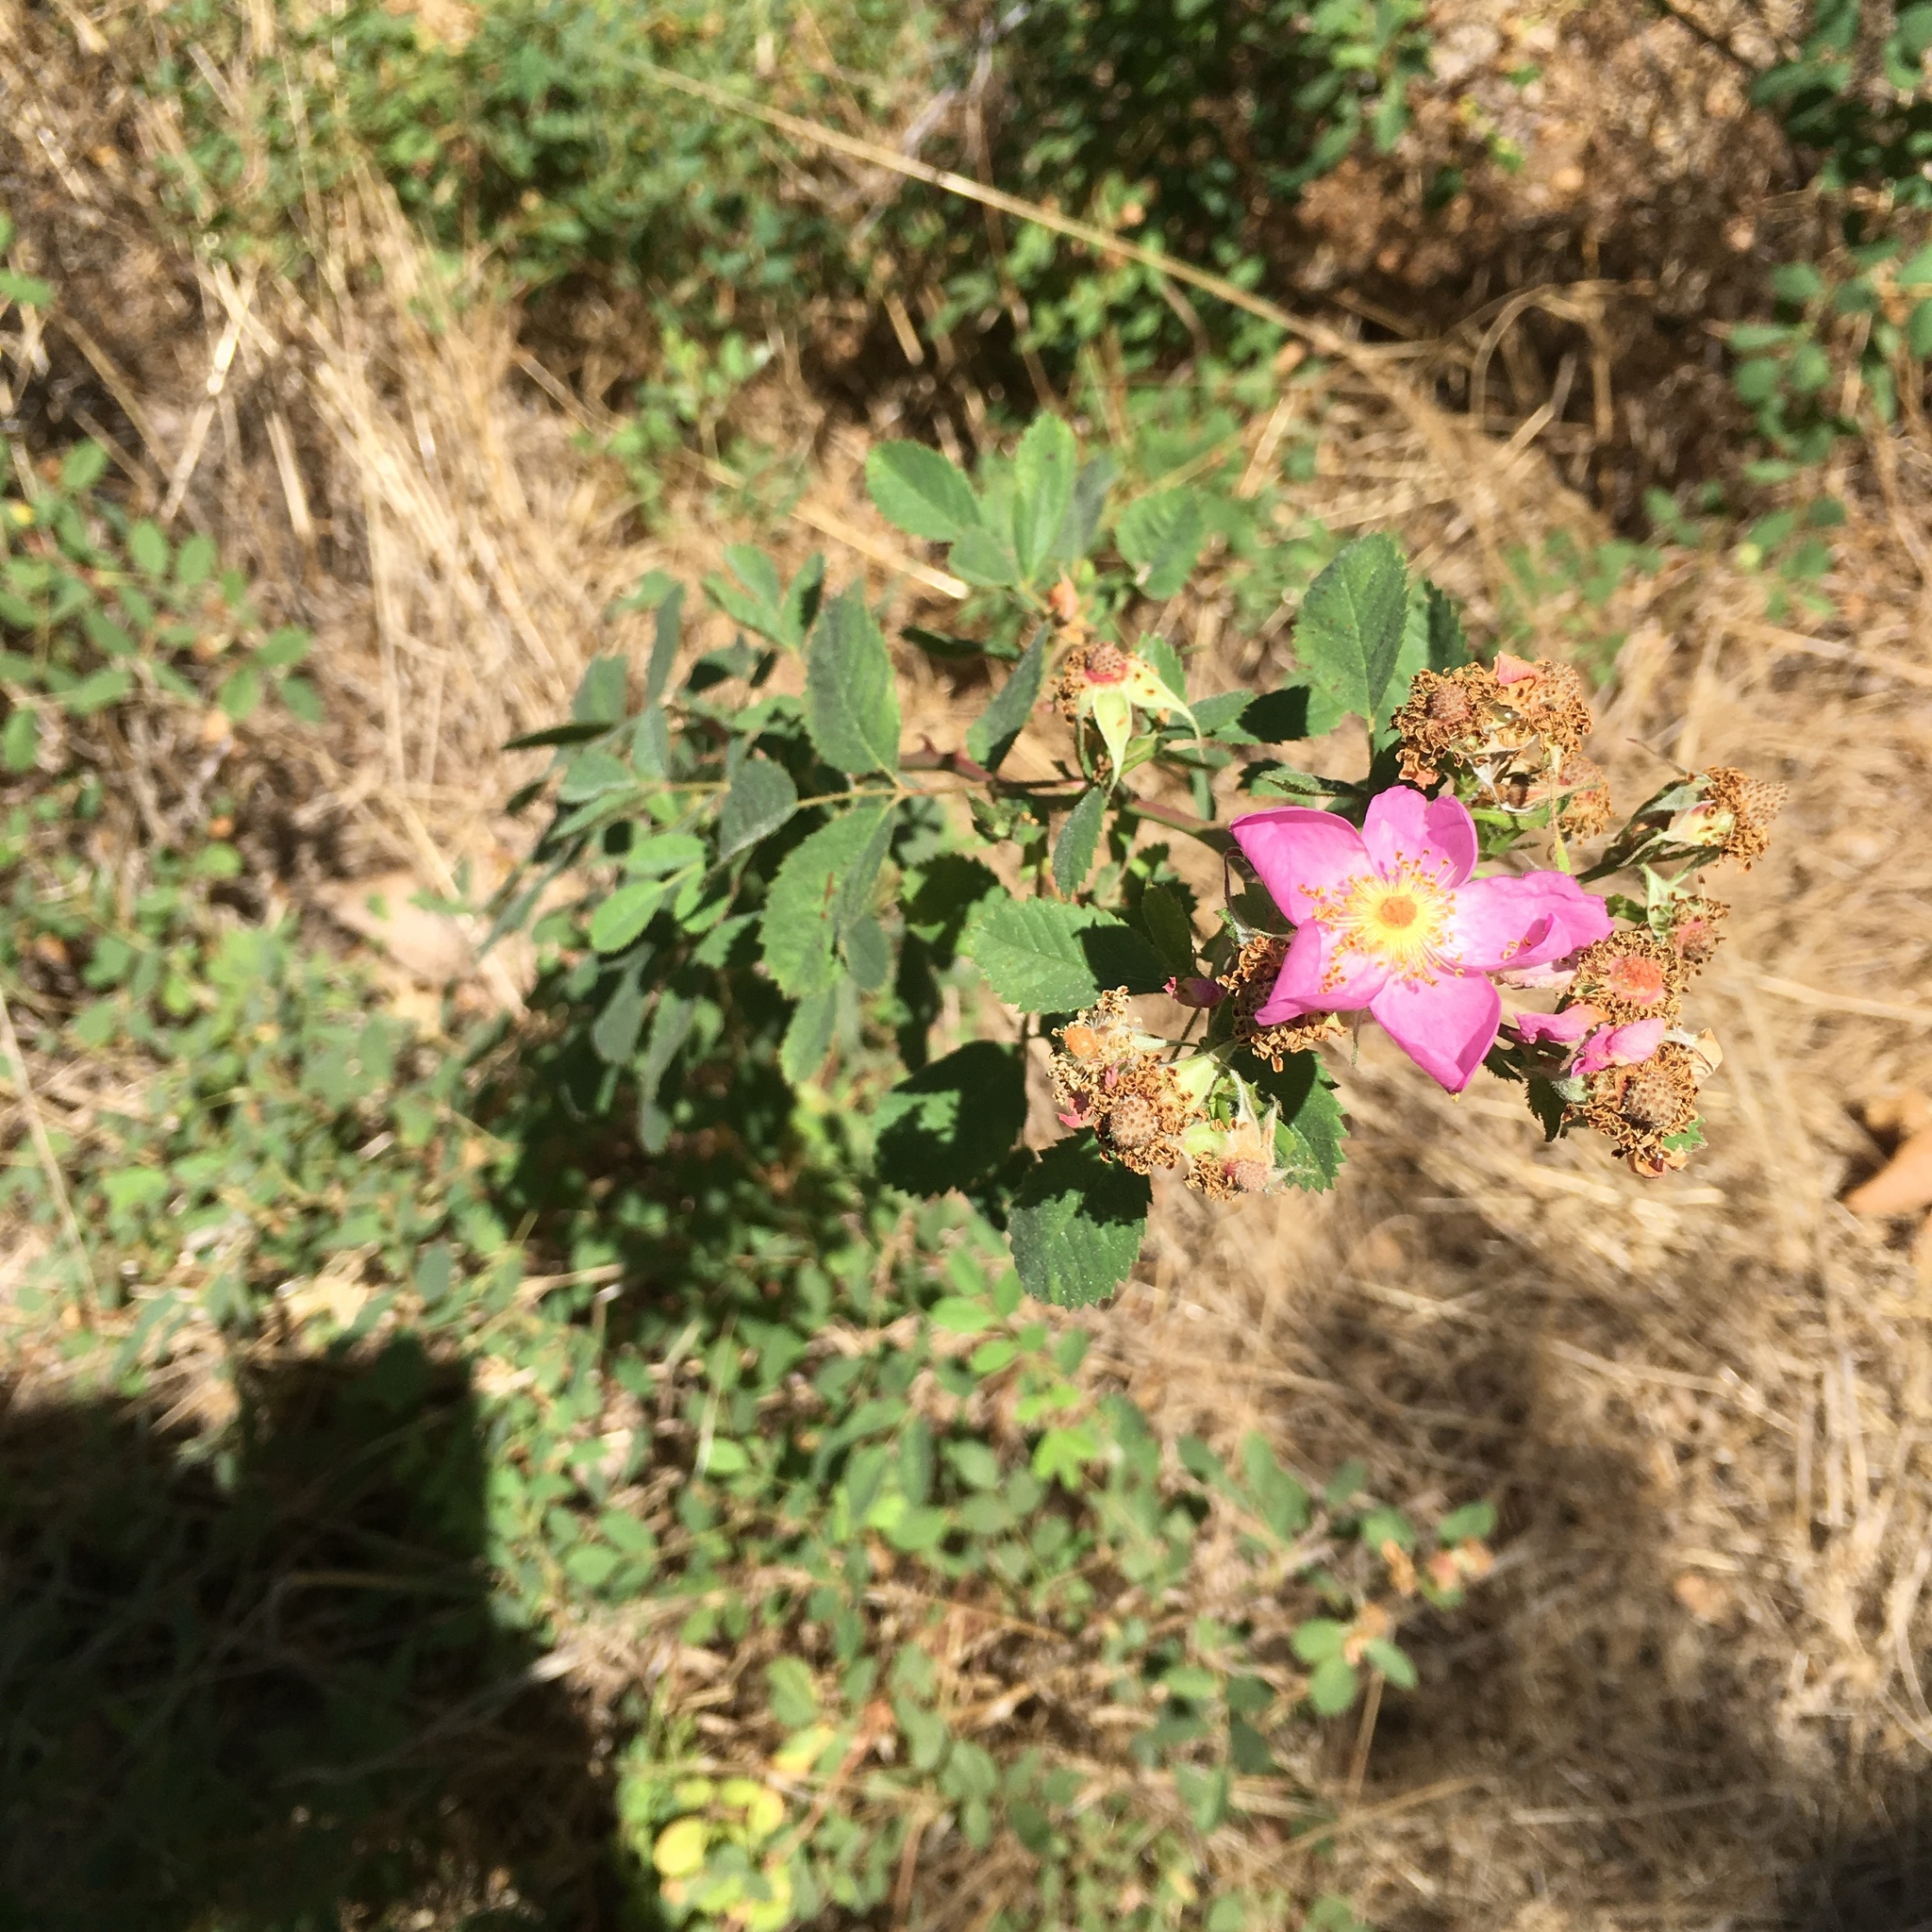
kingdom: Plantae
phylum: Tracheophyta
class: Magnoliopsida
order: Rosales
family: Rosaceae
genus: Rosa
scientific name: Rosa californica
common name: California rose
